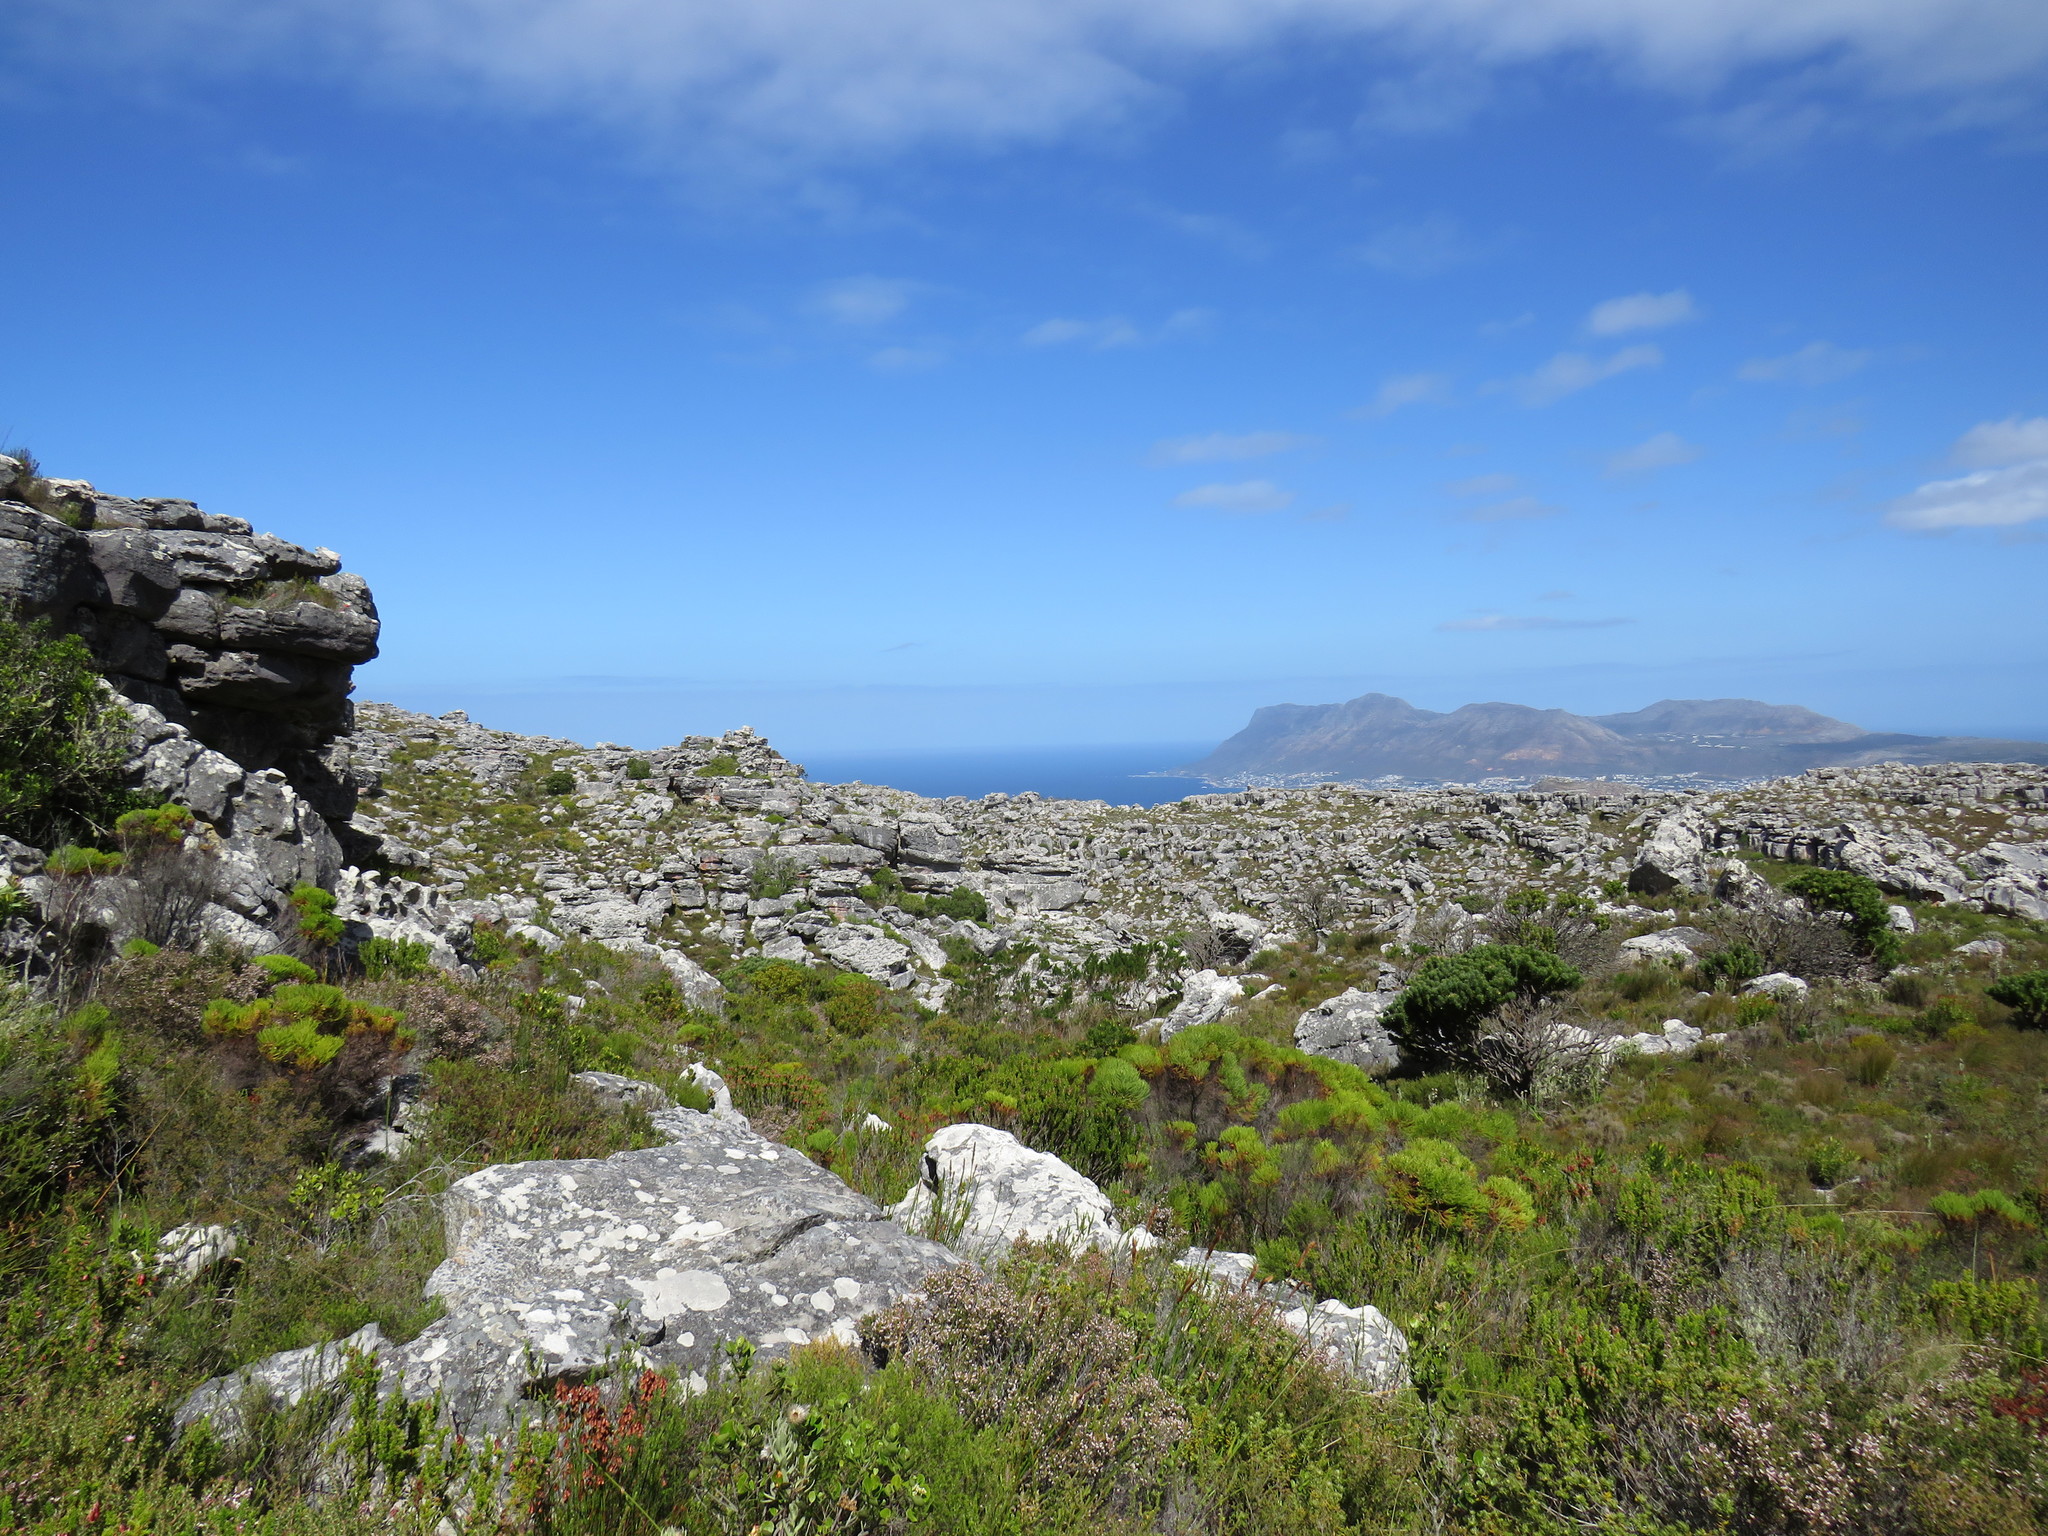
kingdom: Plantae
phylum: Tracheophyta
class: Magnoliopsida
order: Proteales
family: Proteaceae
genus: Mimetes
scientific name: Mimetes fimbriifolius
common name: Fringed bottlebrush
